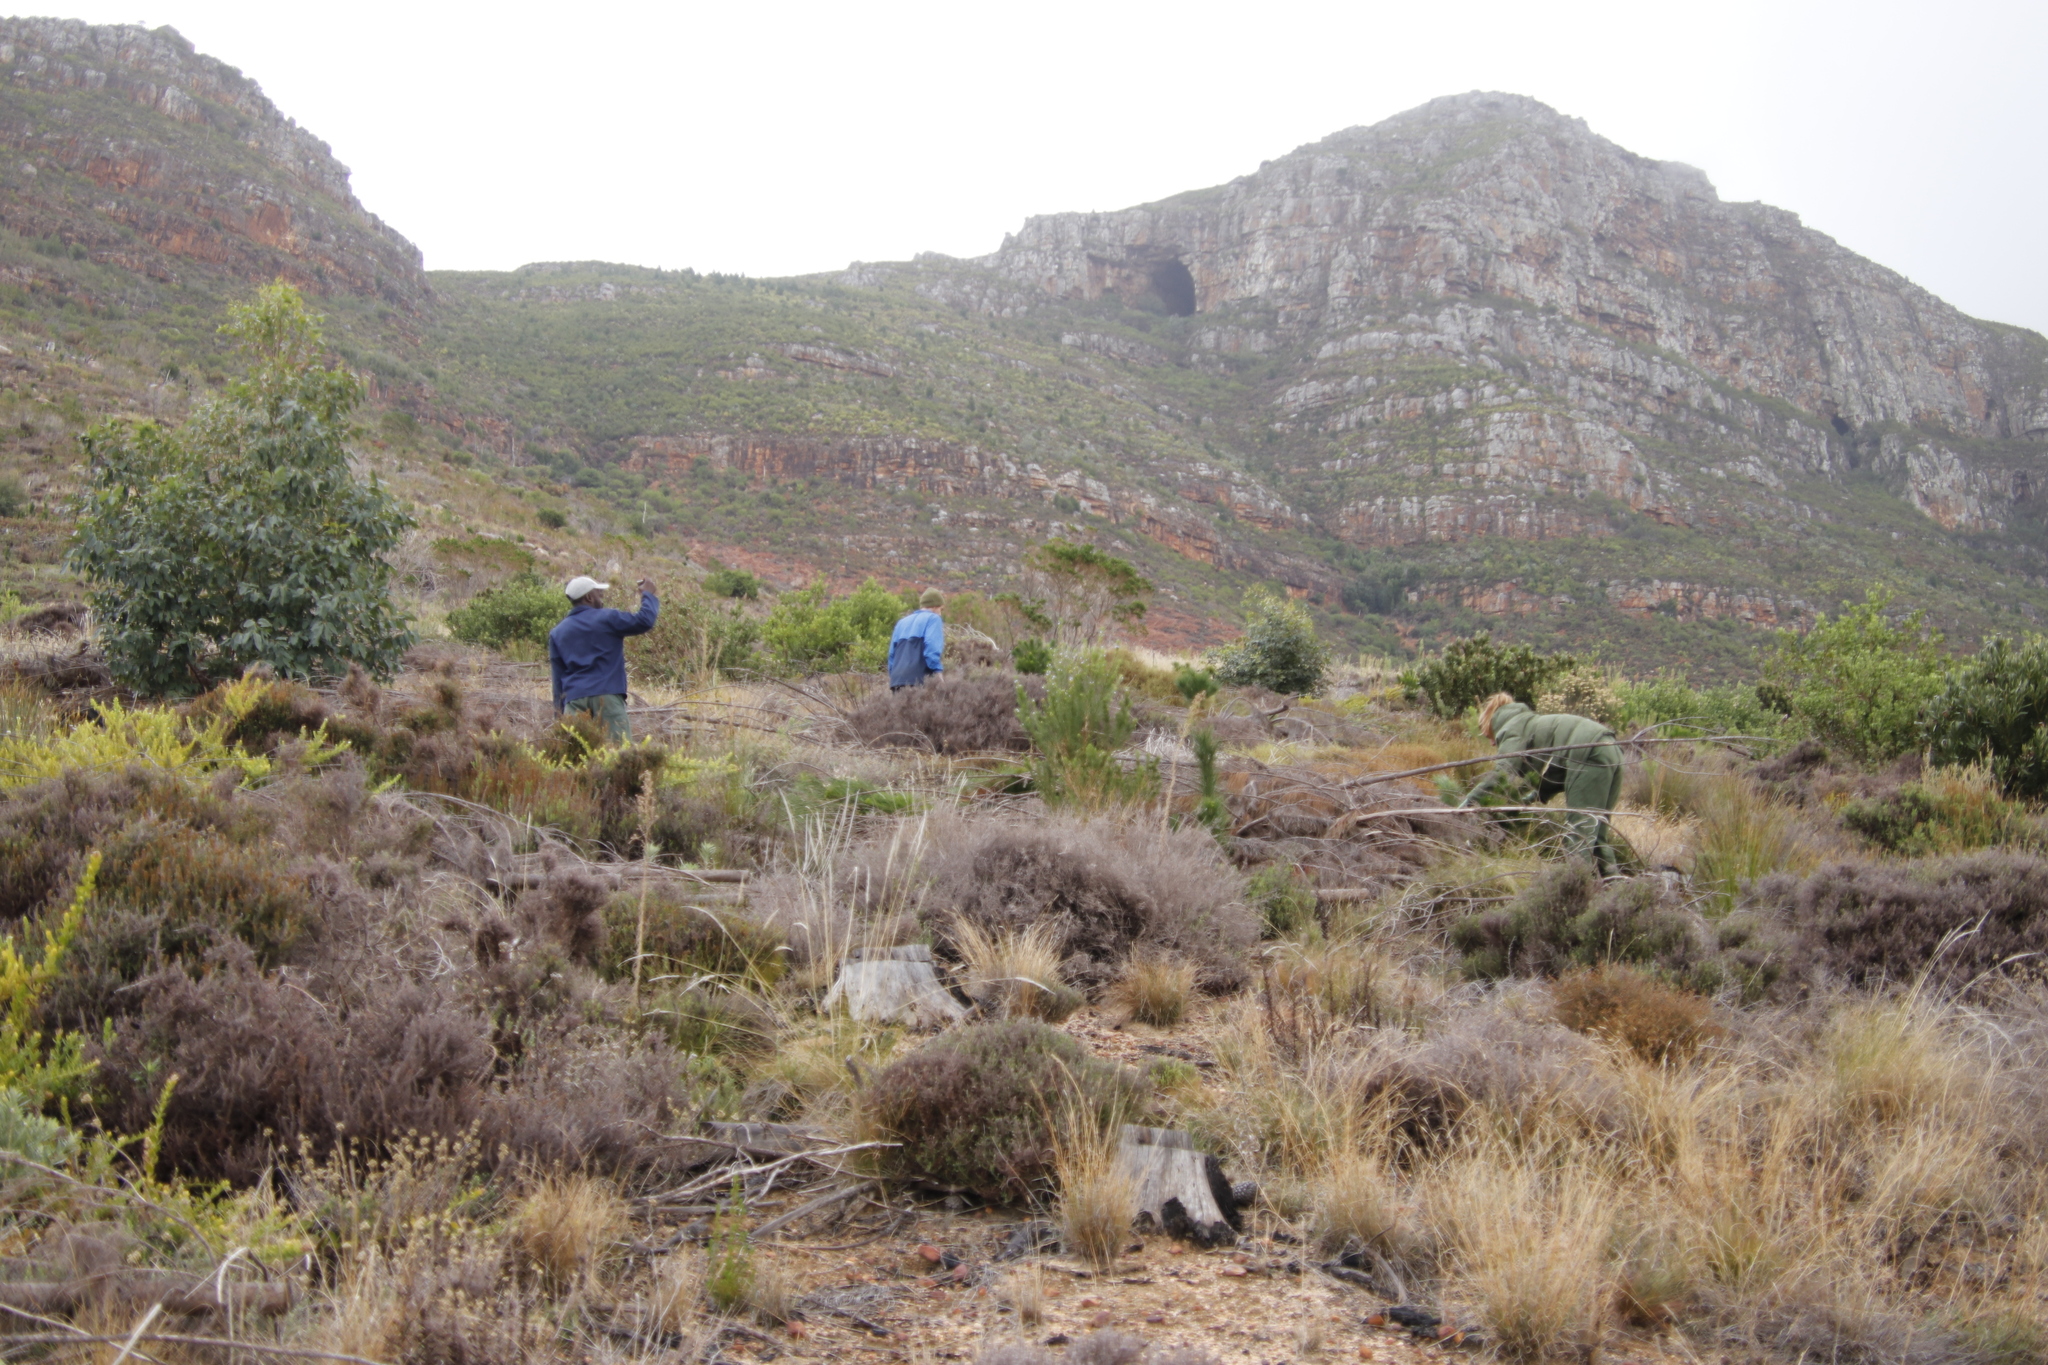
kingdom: Plantae
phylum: Tracheophyta
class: Magnoliopsida
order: Asterales
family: Asteraceae
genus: Seriphium
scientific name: Seriphium cinereum
